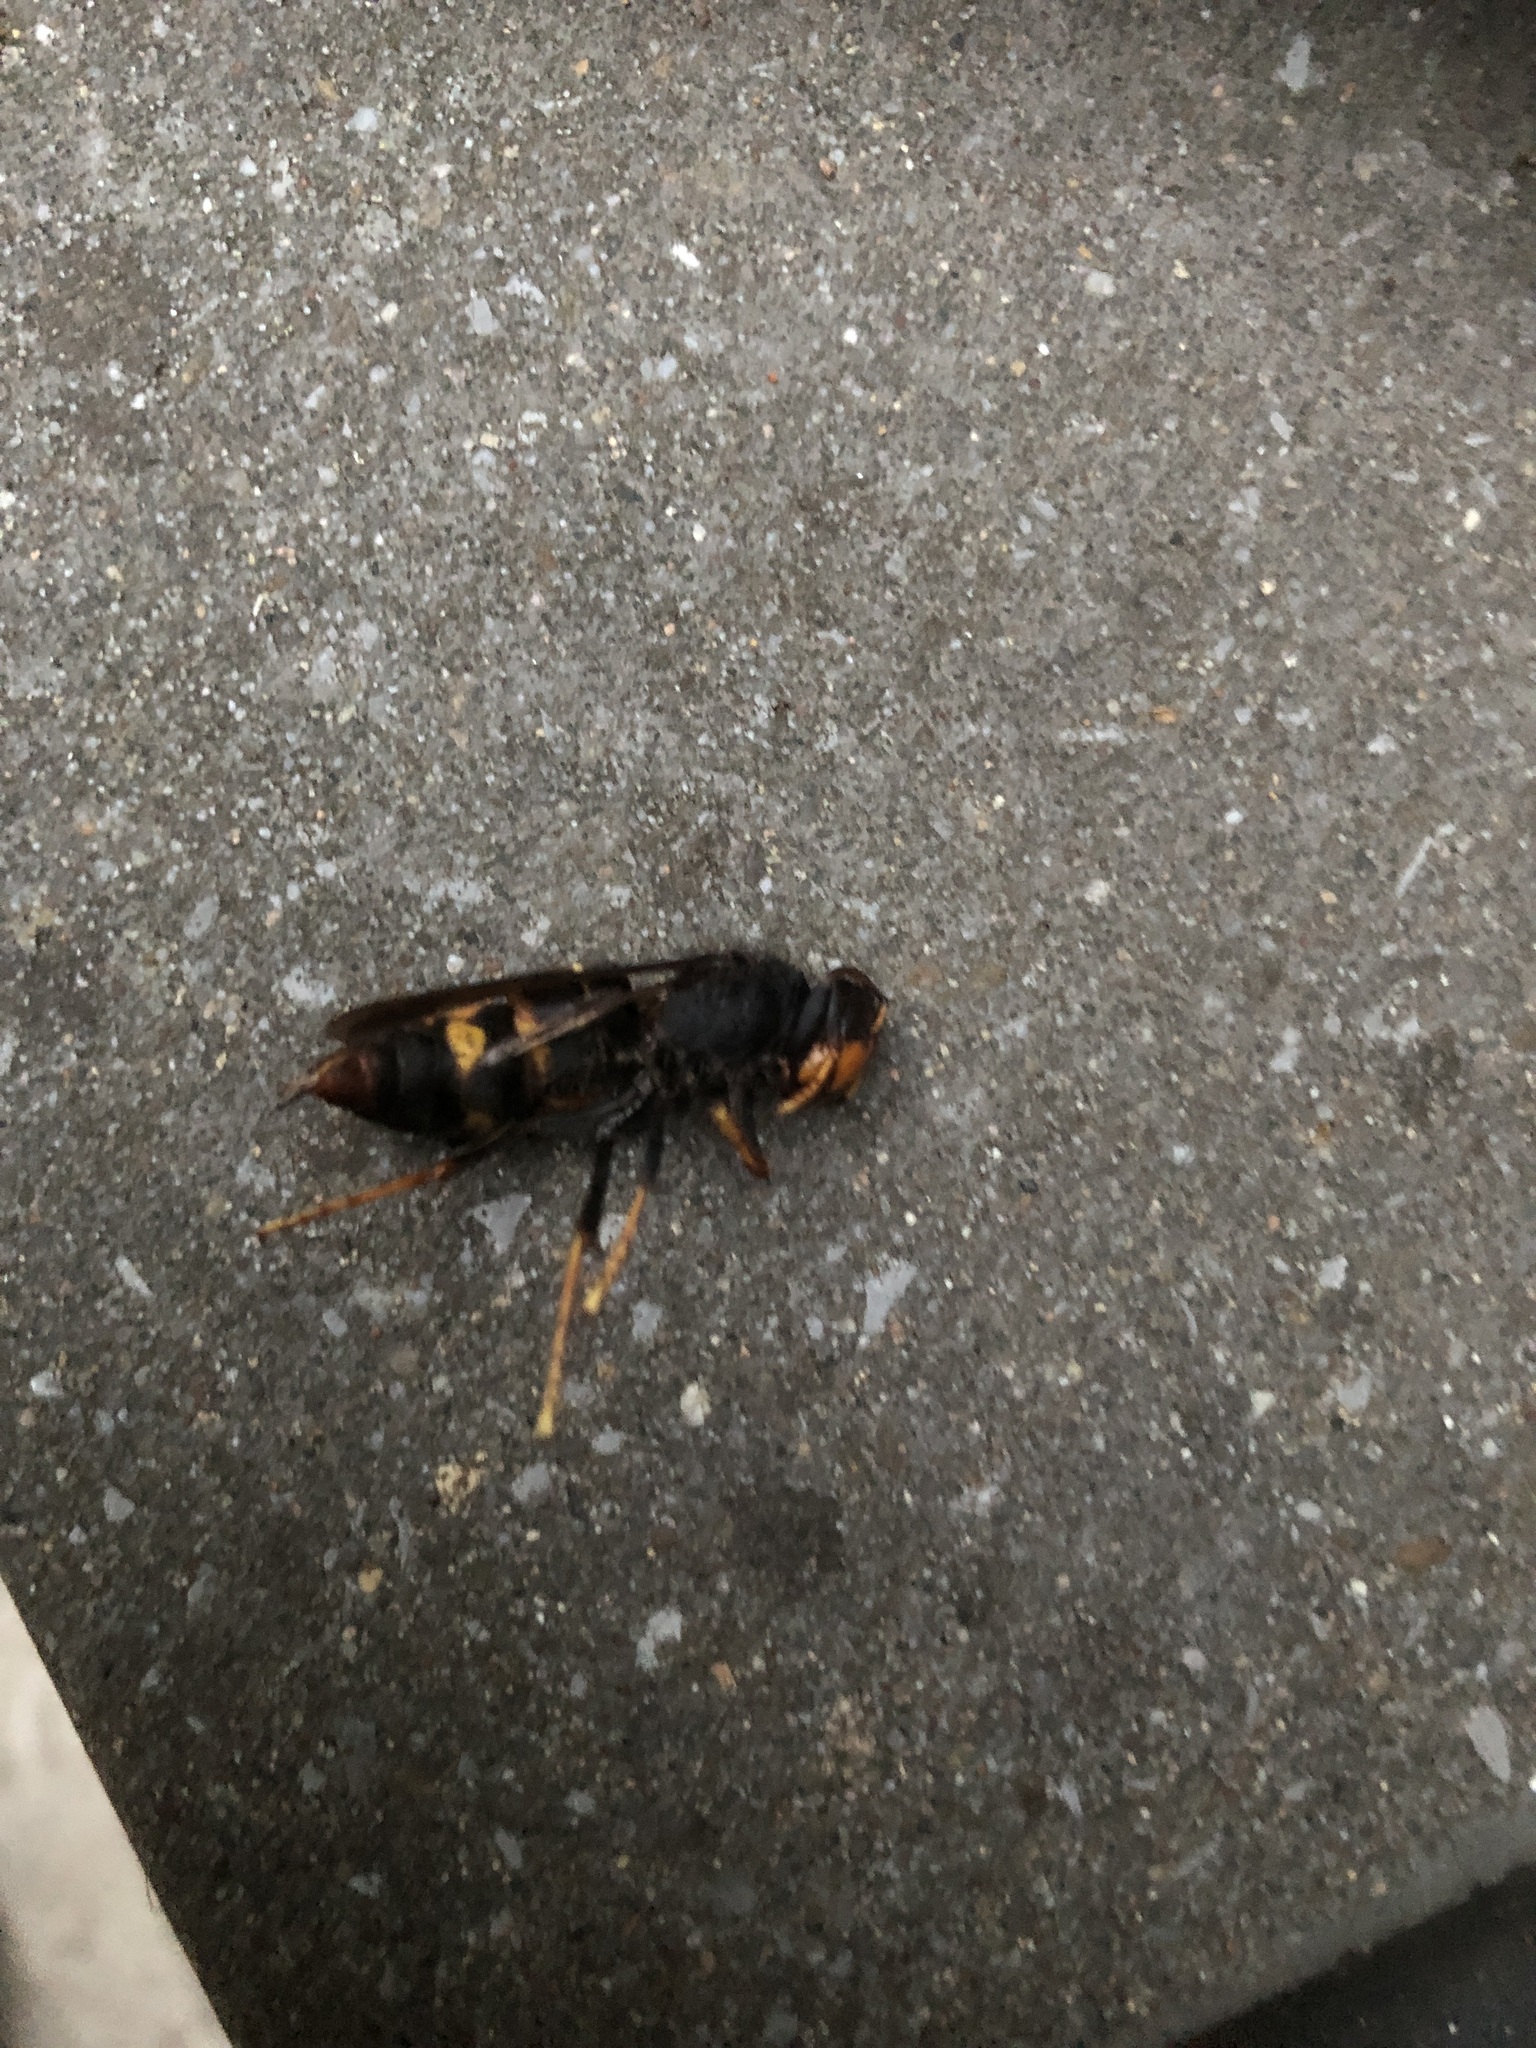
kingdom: Animalia
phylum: Arthropoda
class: Insecta
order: Hymenoptera
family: Vespidae
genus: Vespa
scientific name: Vespa velutina
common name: Asian hornet
